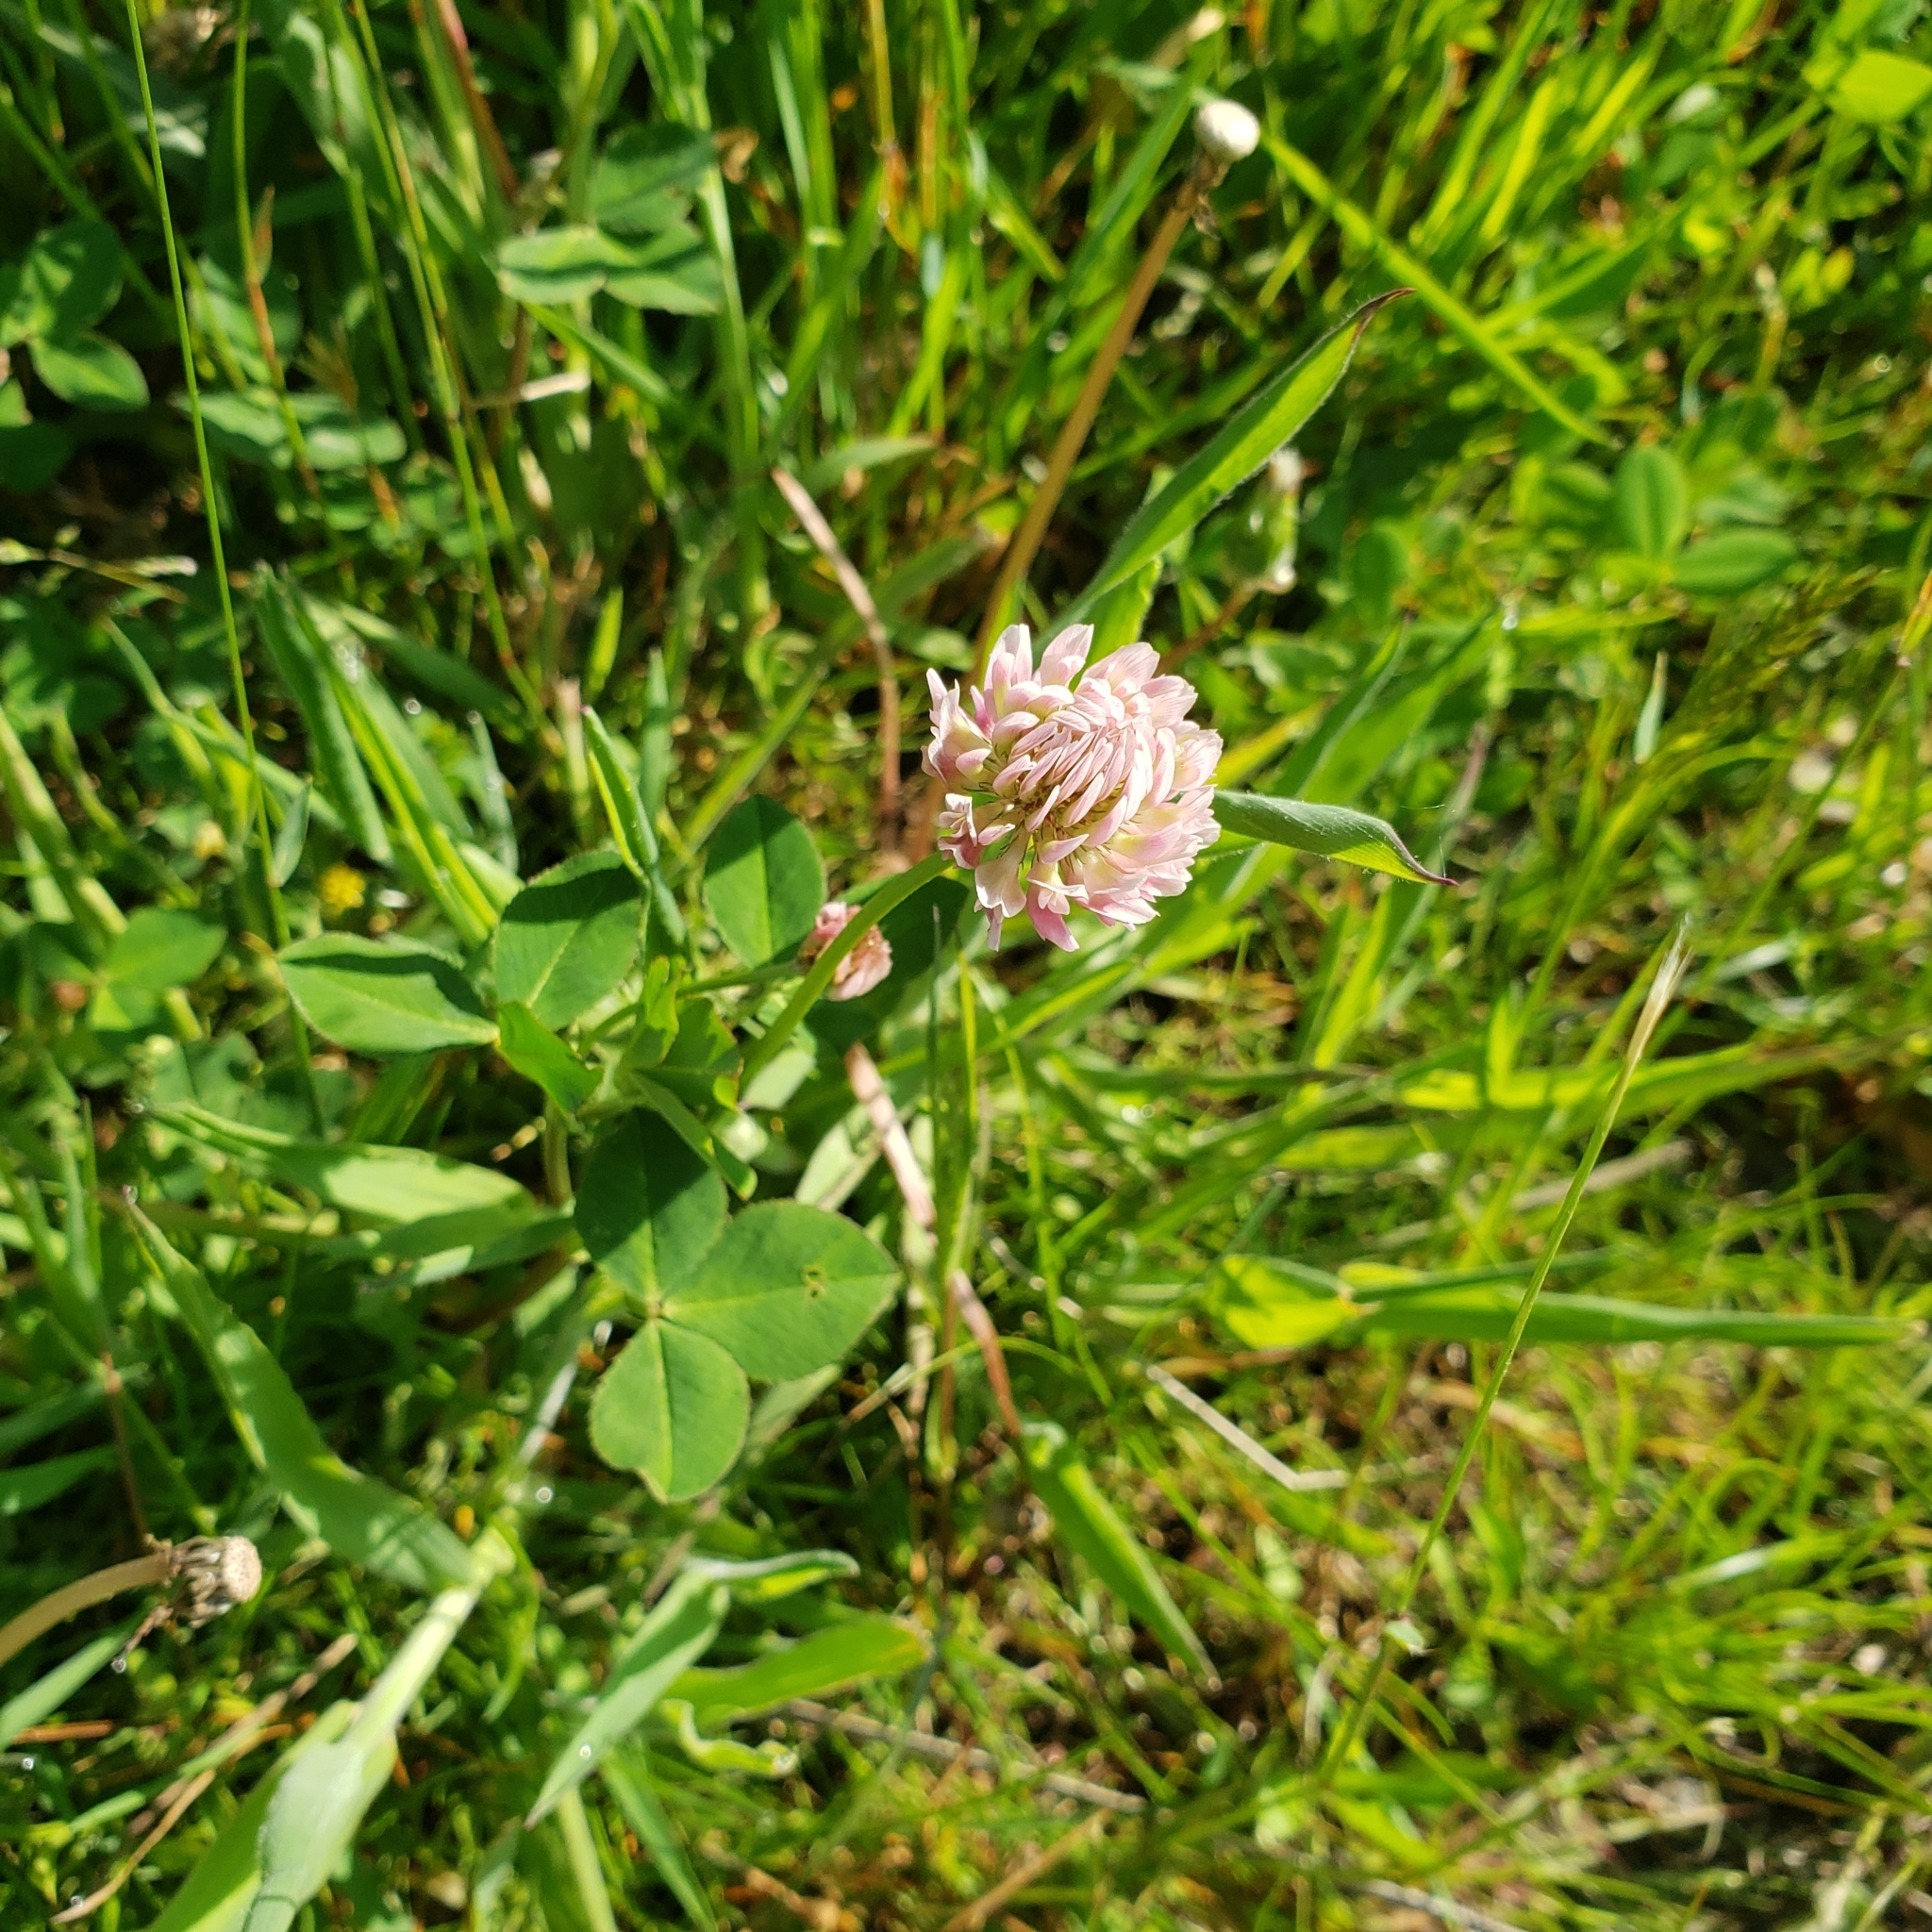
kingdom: Plantae
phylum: Tracheophyta
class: Magnoliopsida
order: Fabales
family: Fabaceae
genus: Trifolium
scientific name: Trifolium hybridum
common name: Alsike clover
